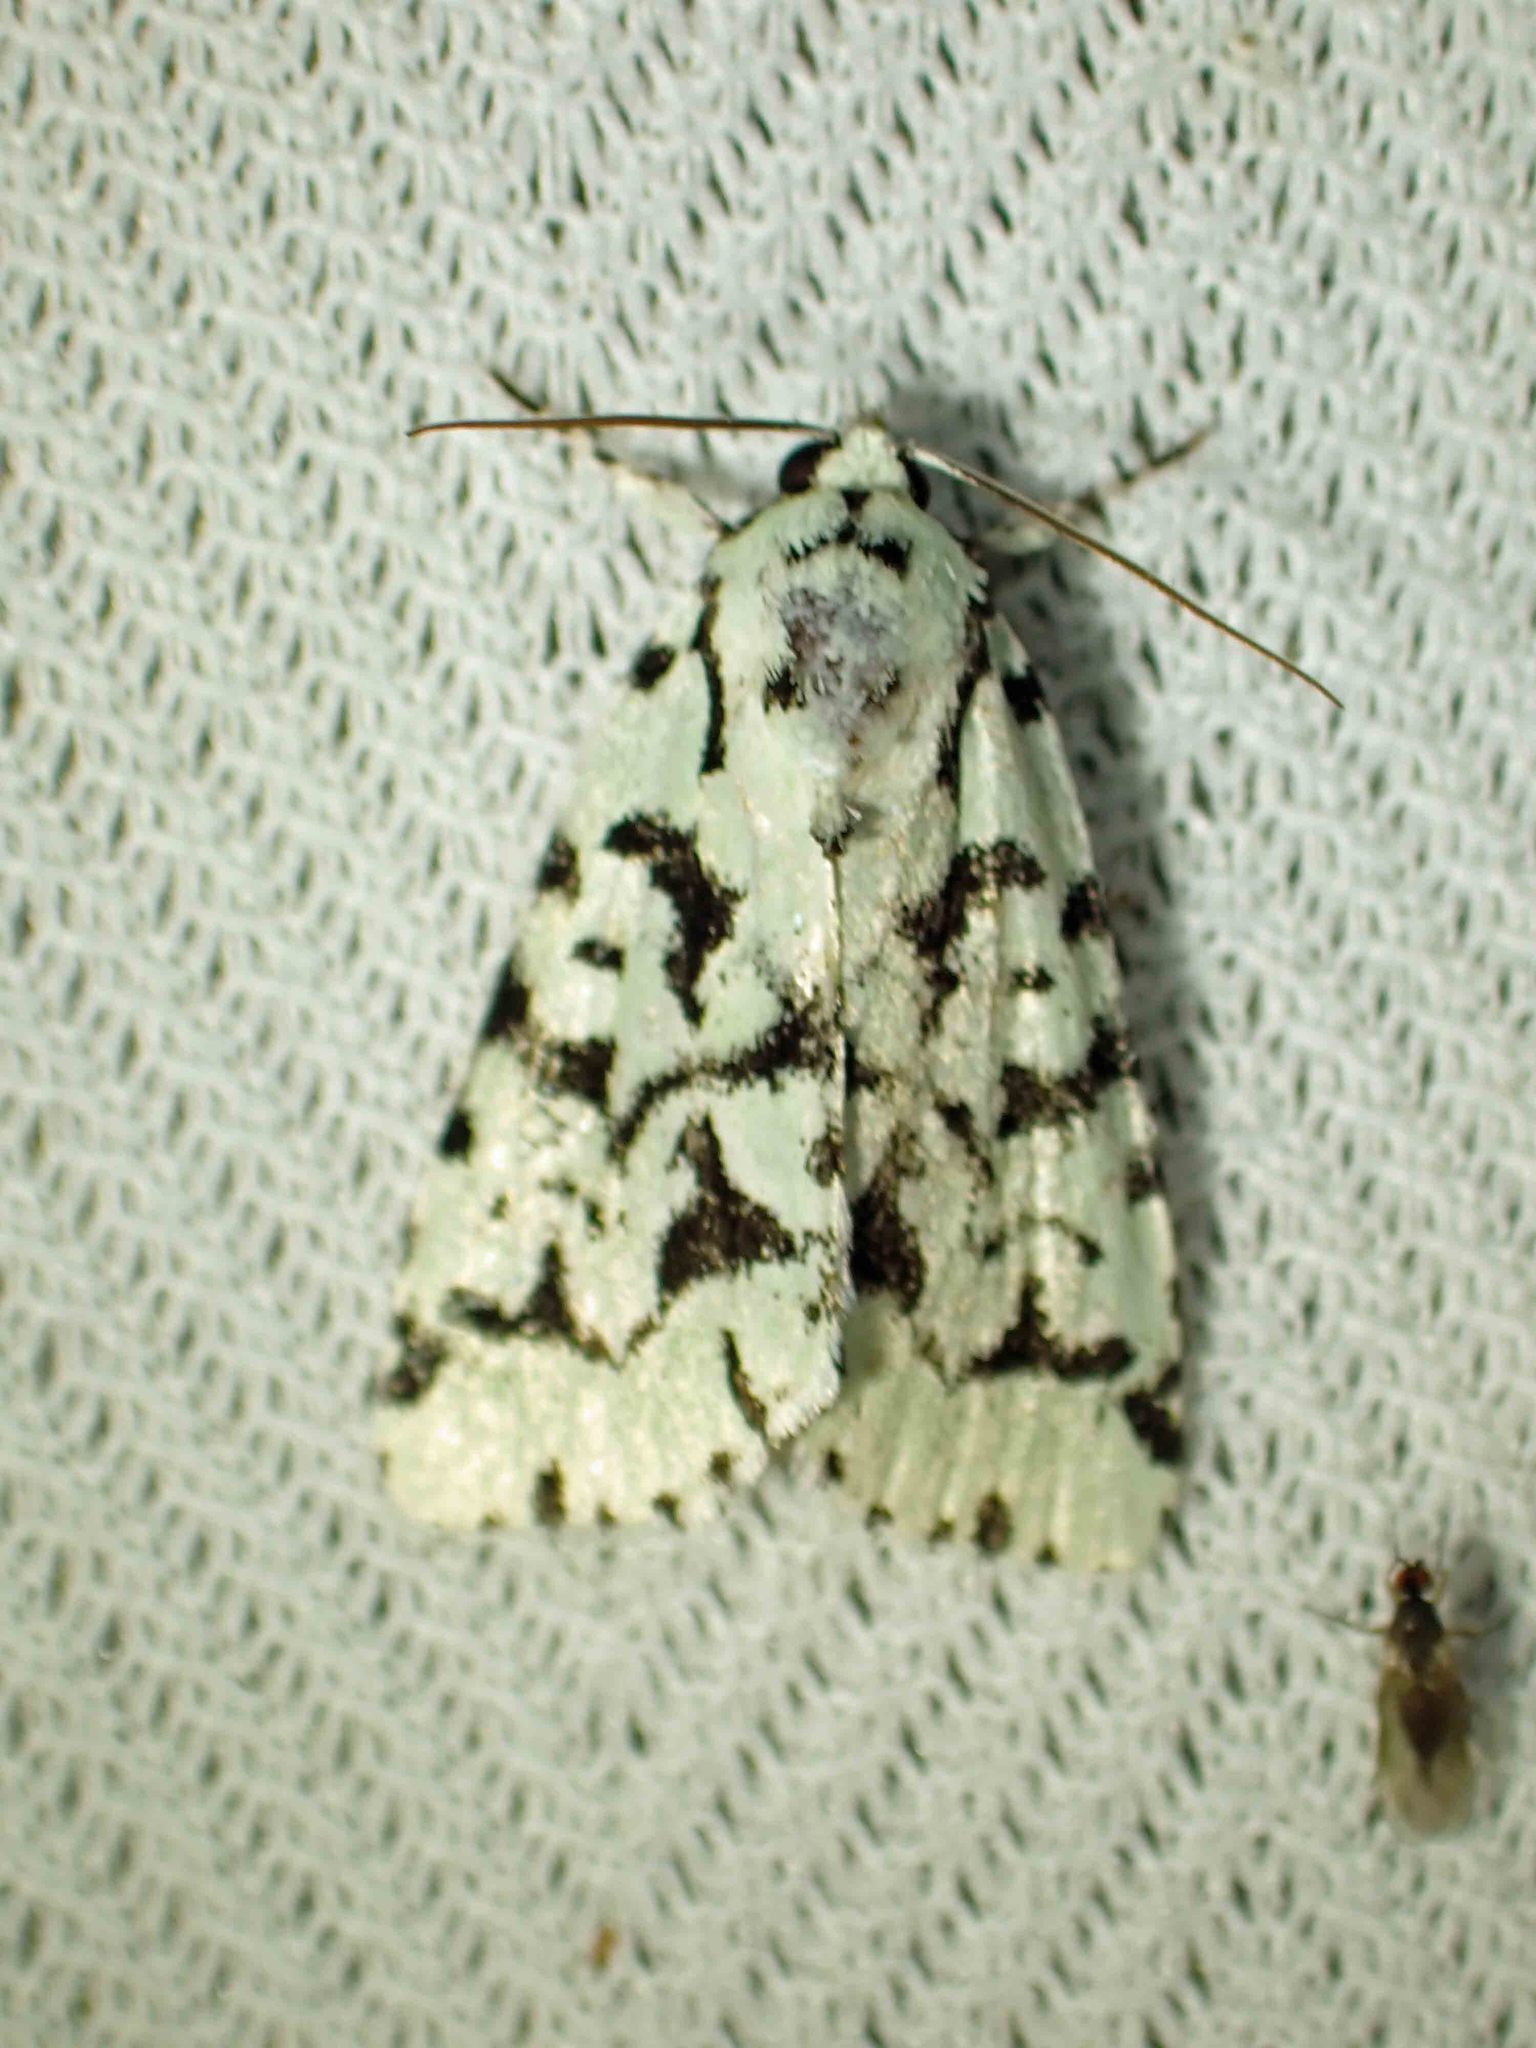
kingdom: Animalia
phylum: Arthropoda
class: Insecta
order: Lepidoptera
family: Noctuidae
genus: Acronicta
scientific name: Acronicta fallax
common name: Green marvel
